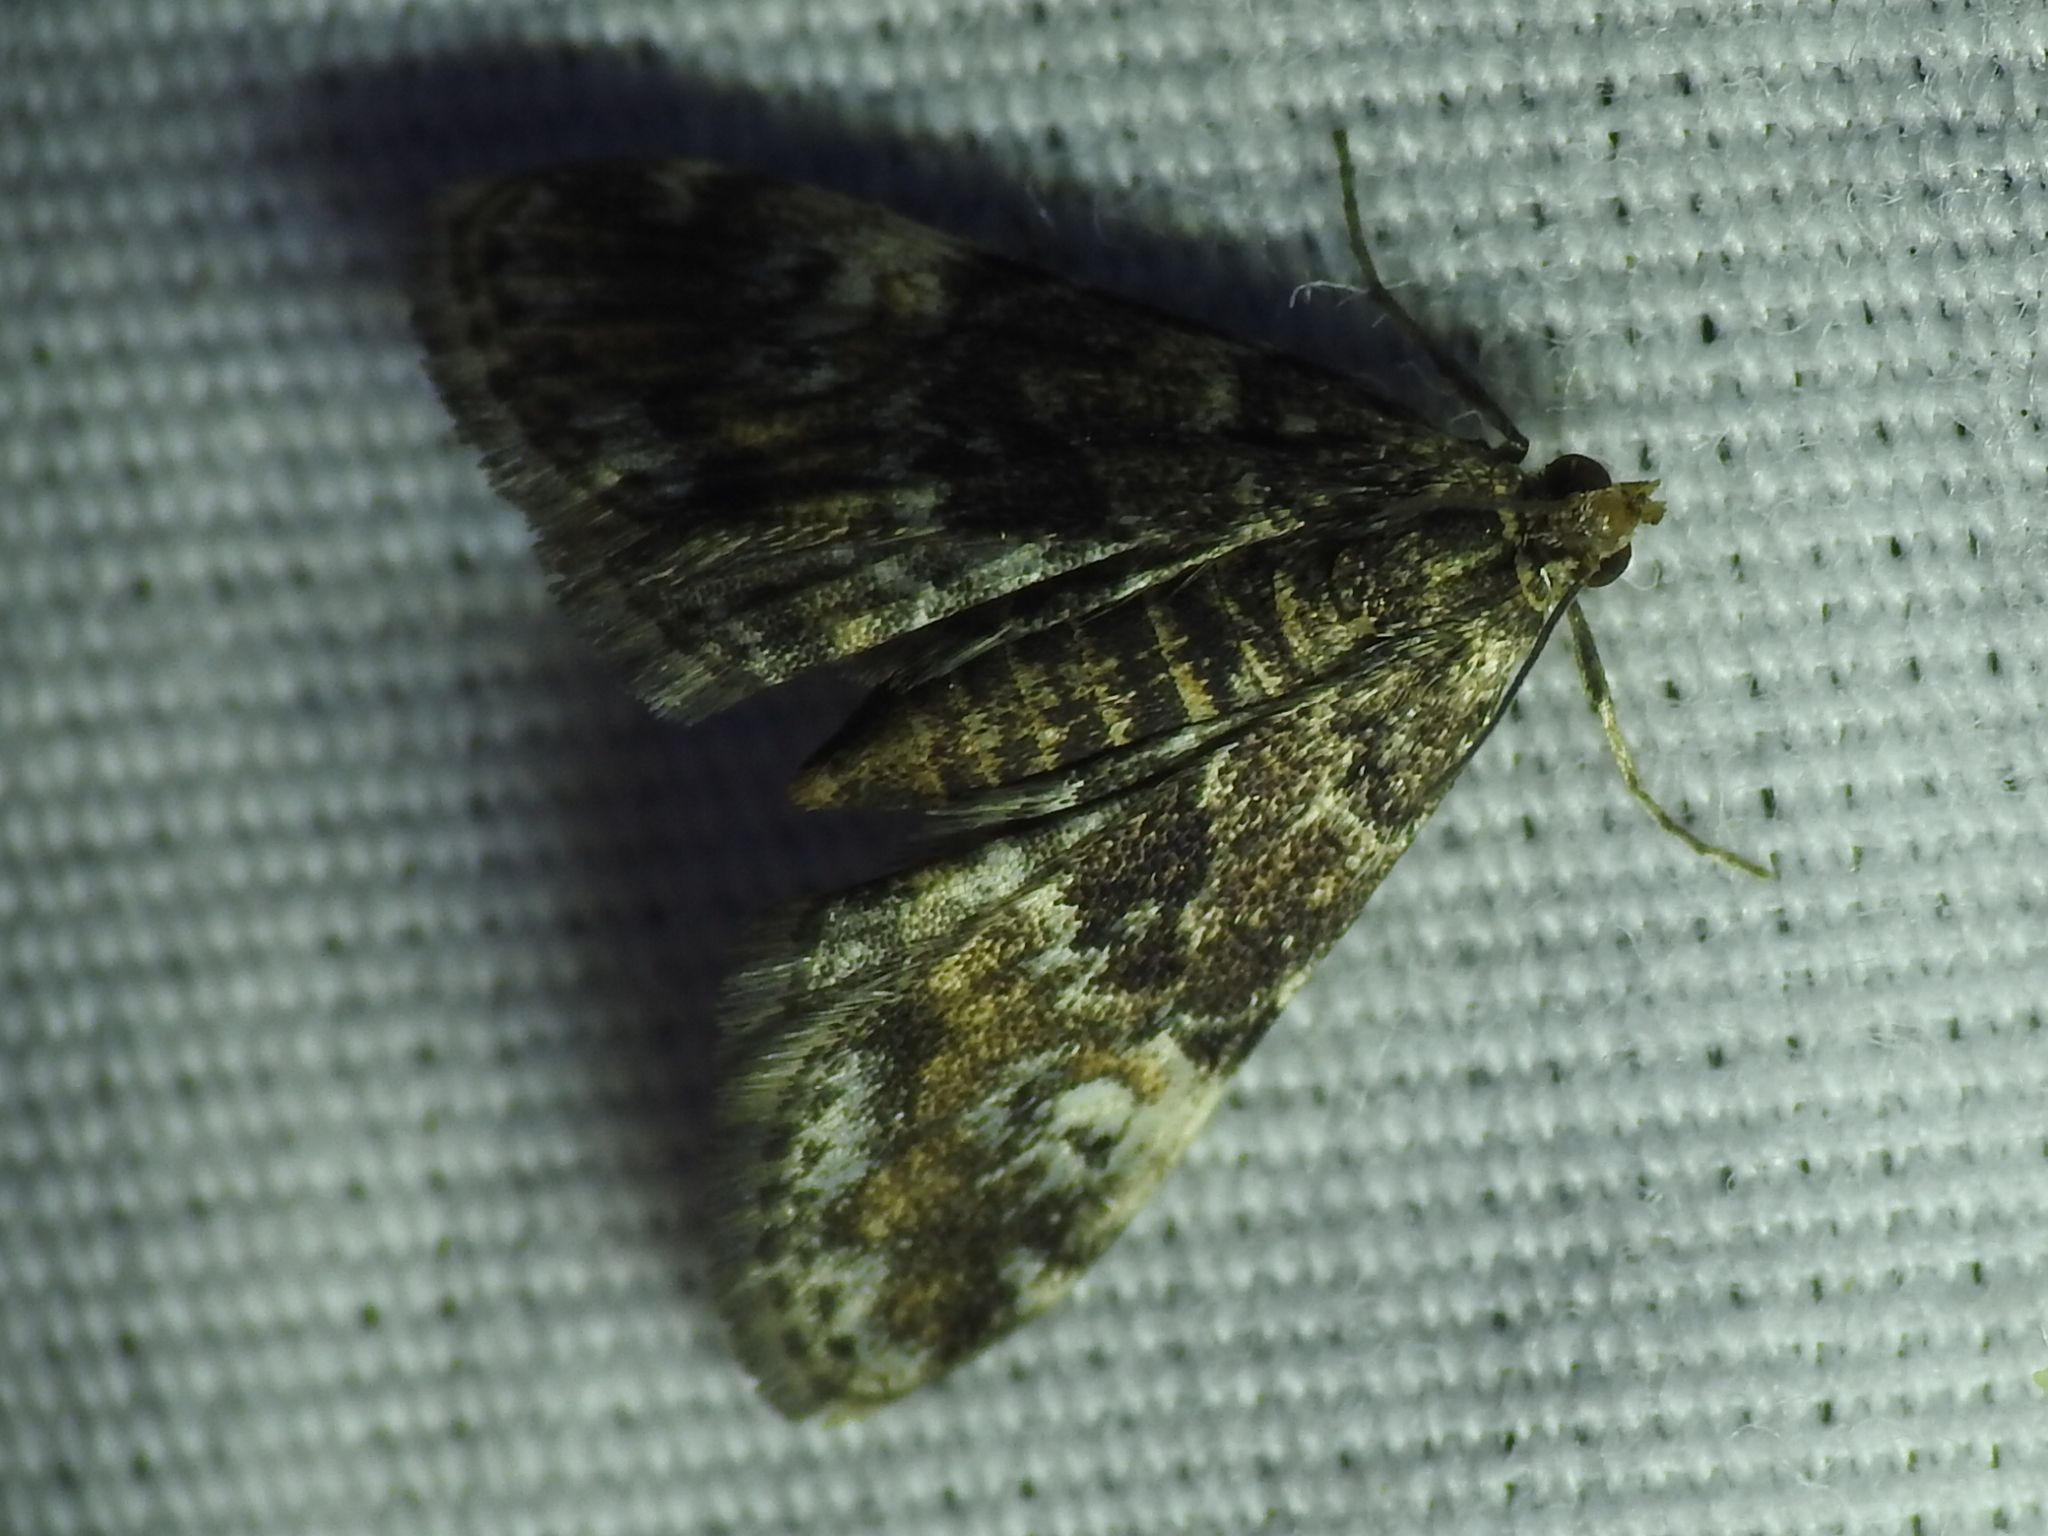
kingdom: Animalia
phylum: Arthropoda
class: Insecta
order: Lepidoptera
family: Crambidae
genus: Elophila
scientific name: Elophila obliteralis
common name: Waterlily leafcutter moth
